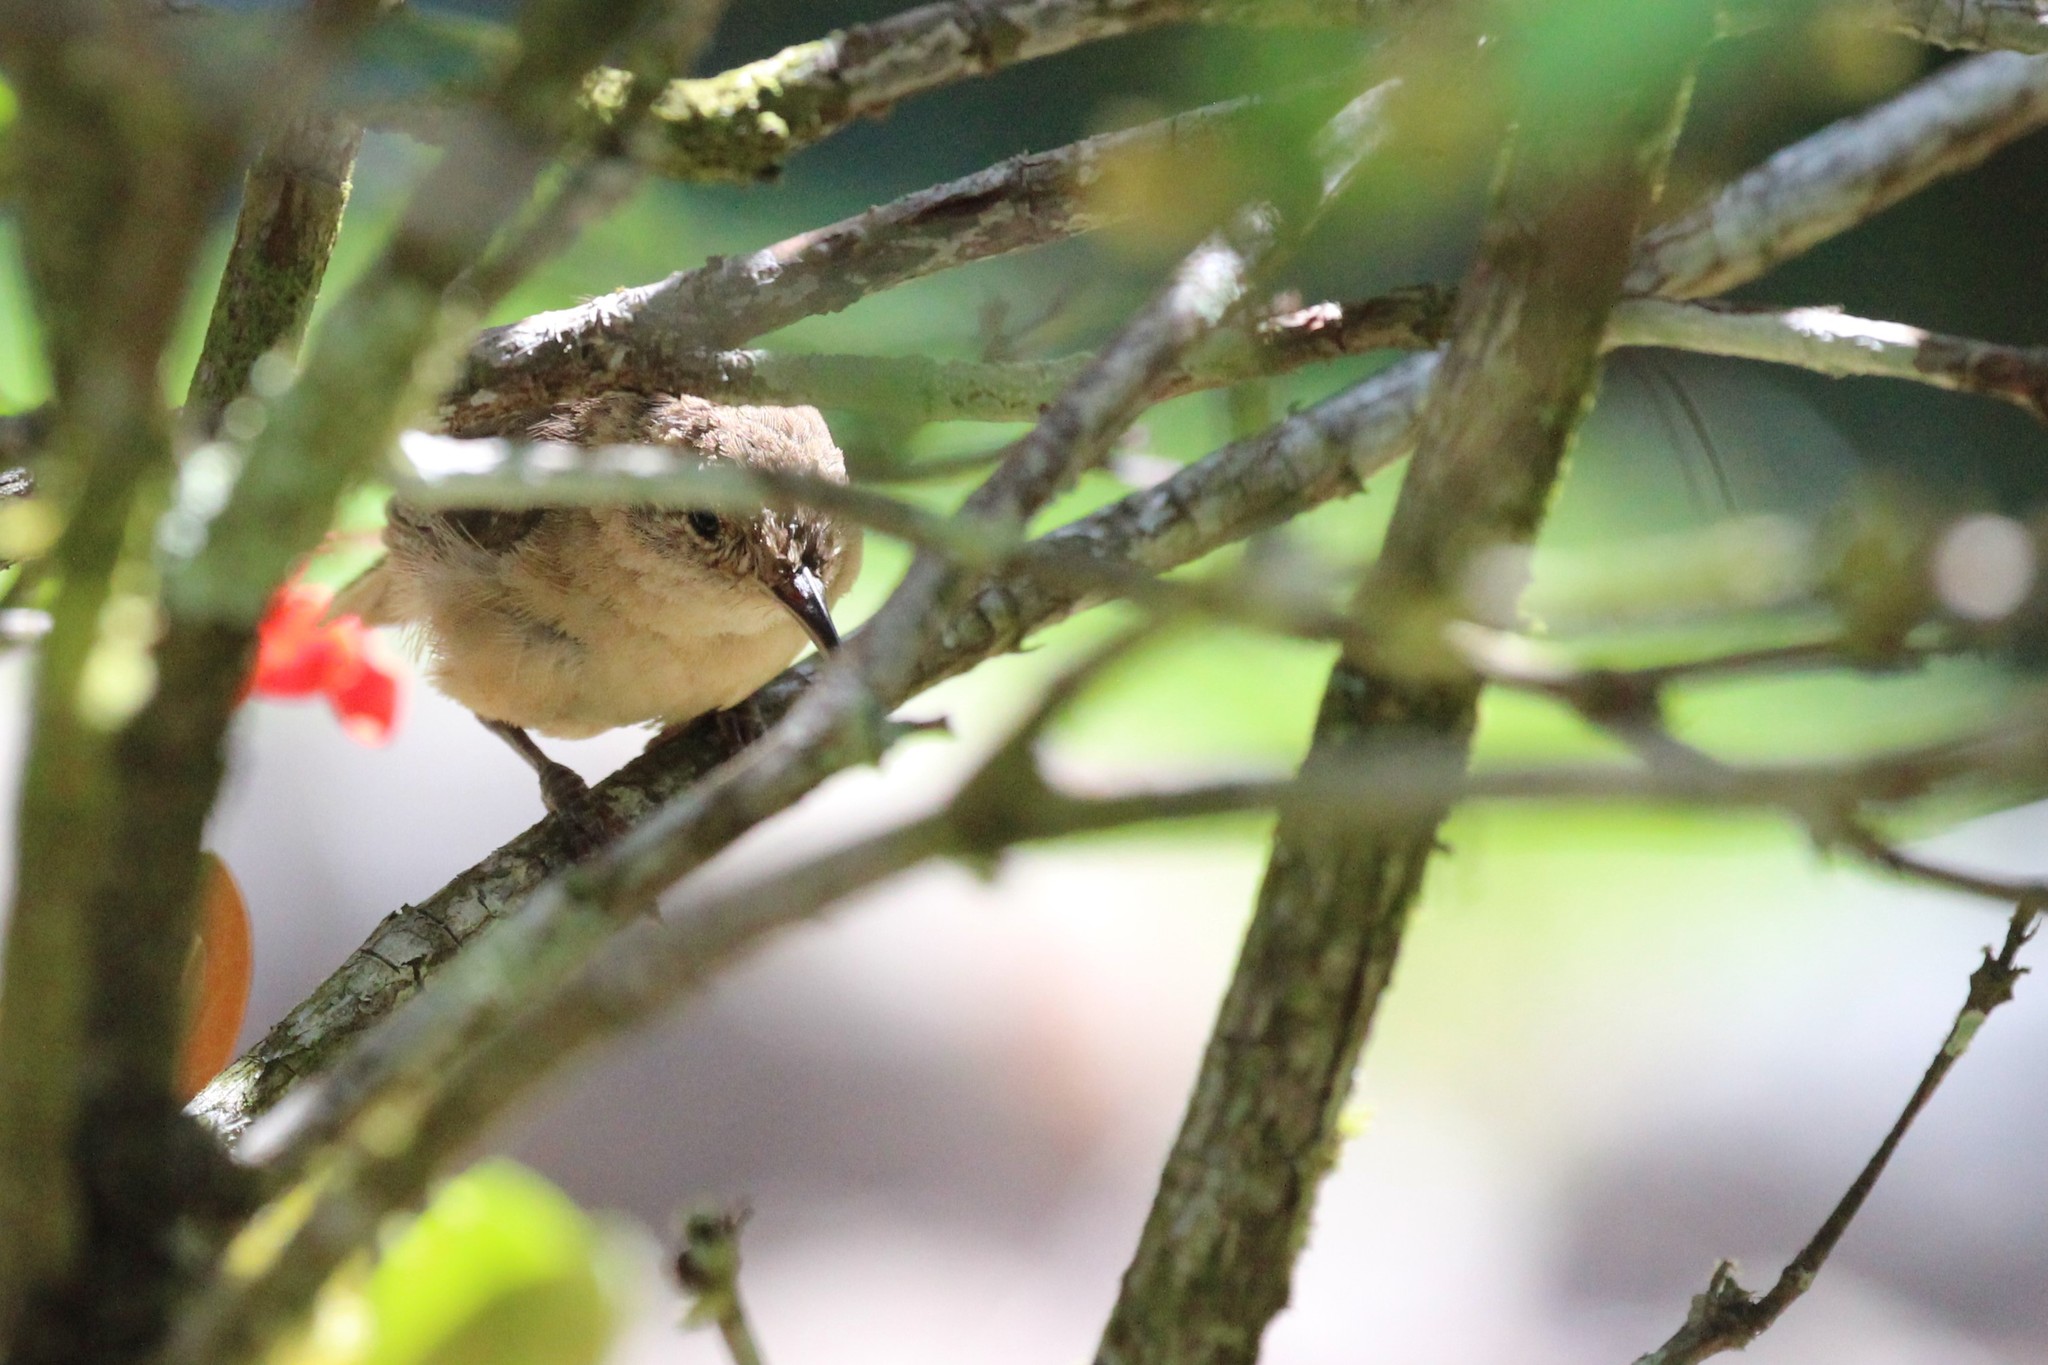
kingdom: Animalia
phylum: Chordata
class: Aves
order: Passeriformes
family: Troglodytidae
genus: Troglodytes
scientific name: Troglodytes aedon
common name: House wren
